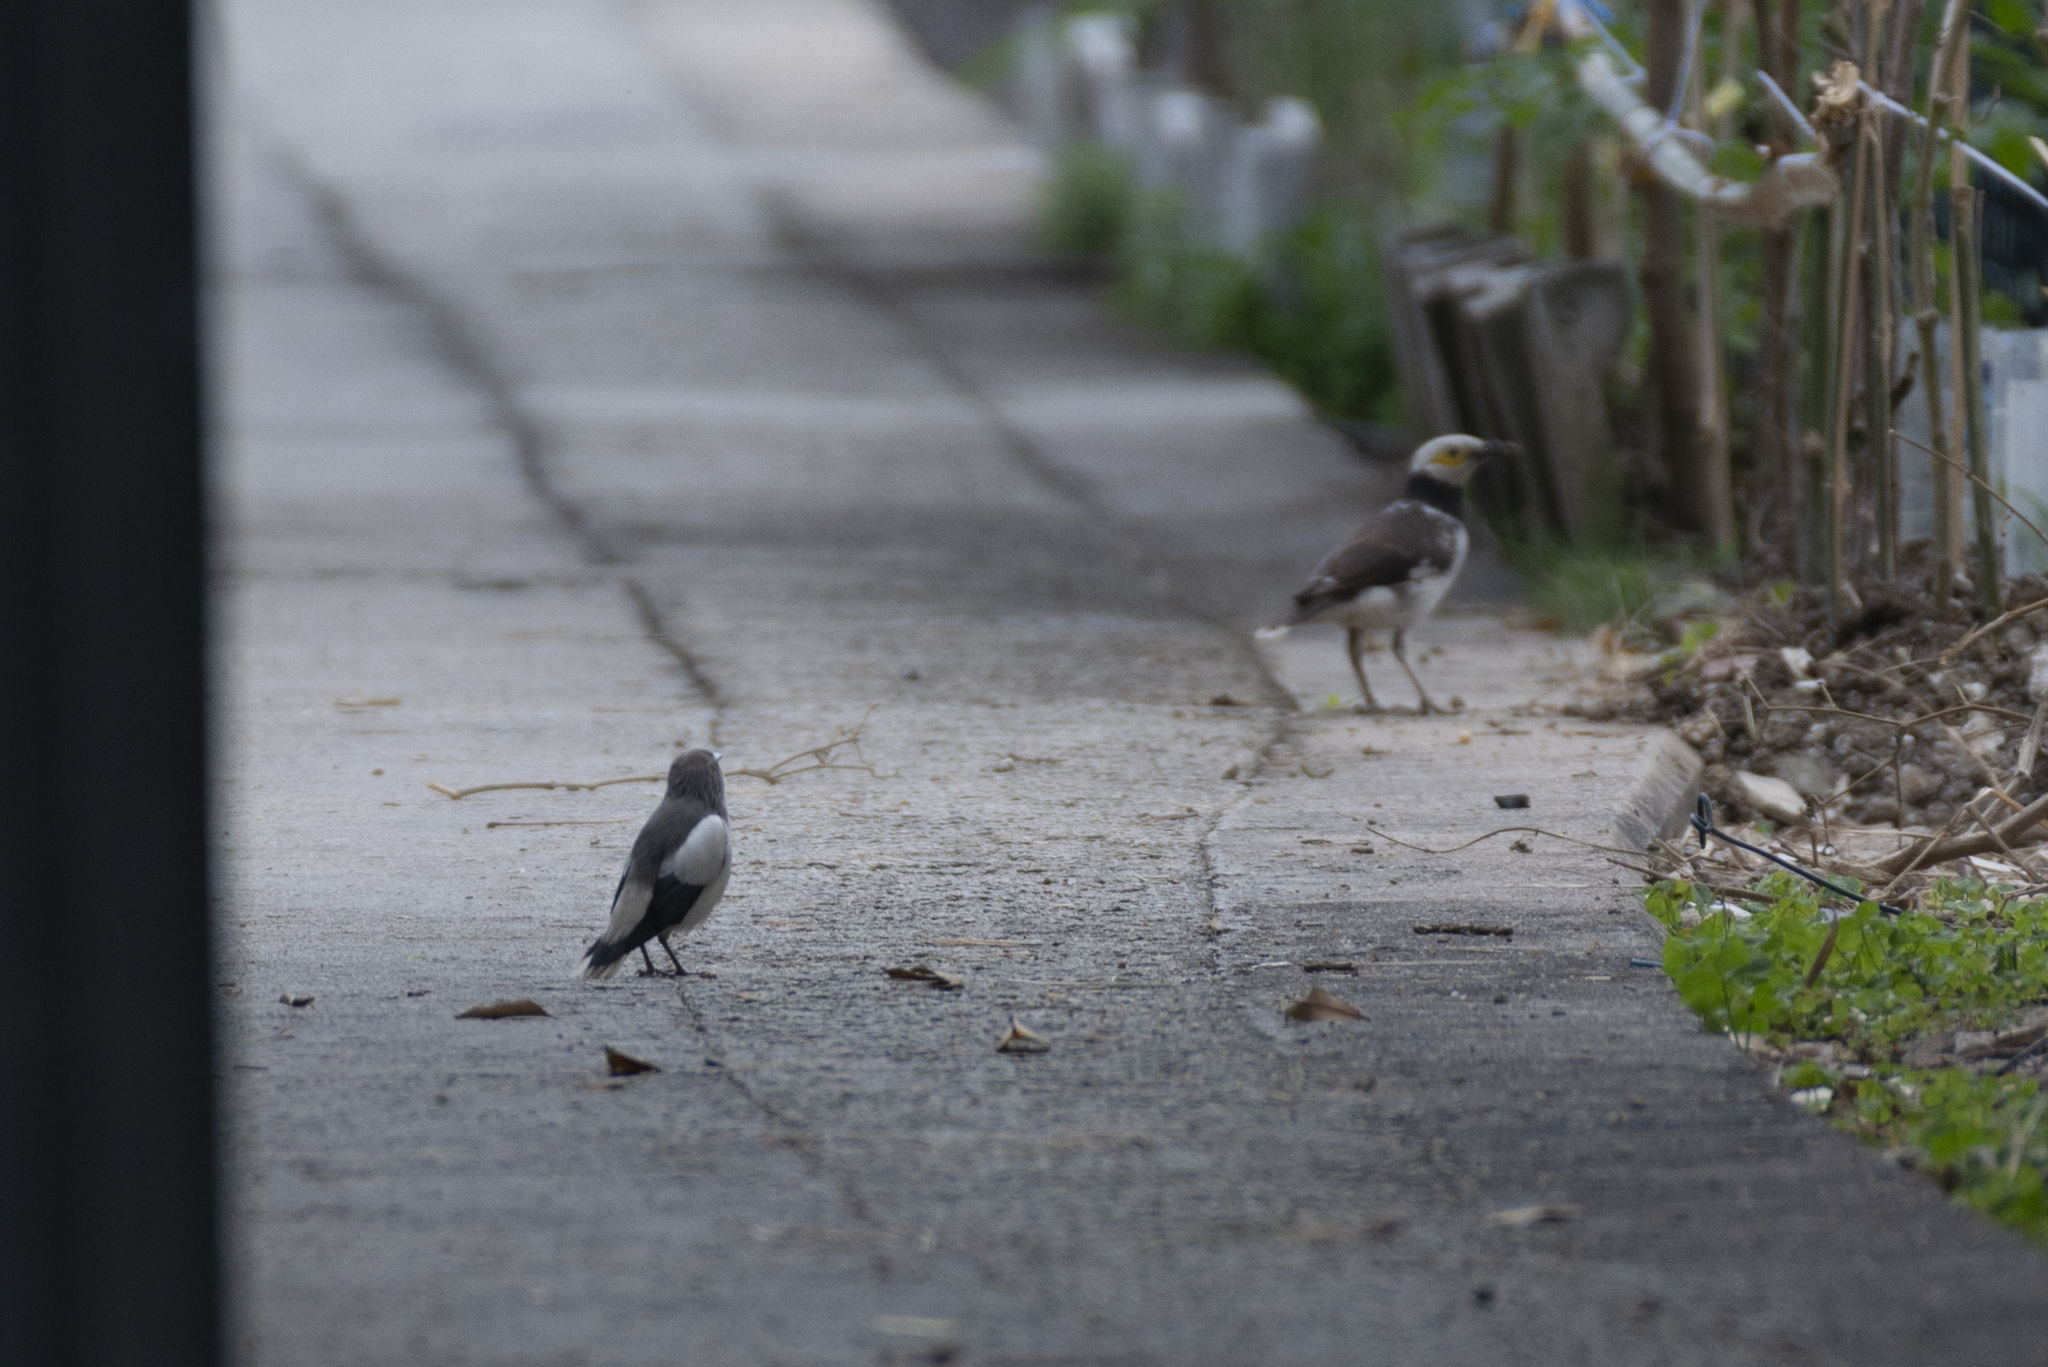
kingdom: Animalia
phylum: Chordata
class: Aves
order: Passeriformes
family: Sturnidae
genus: Sturnia
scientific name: Sturnia sinensis
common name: White-shouldered starling
